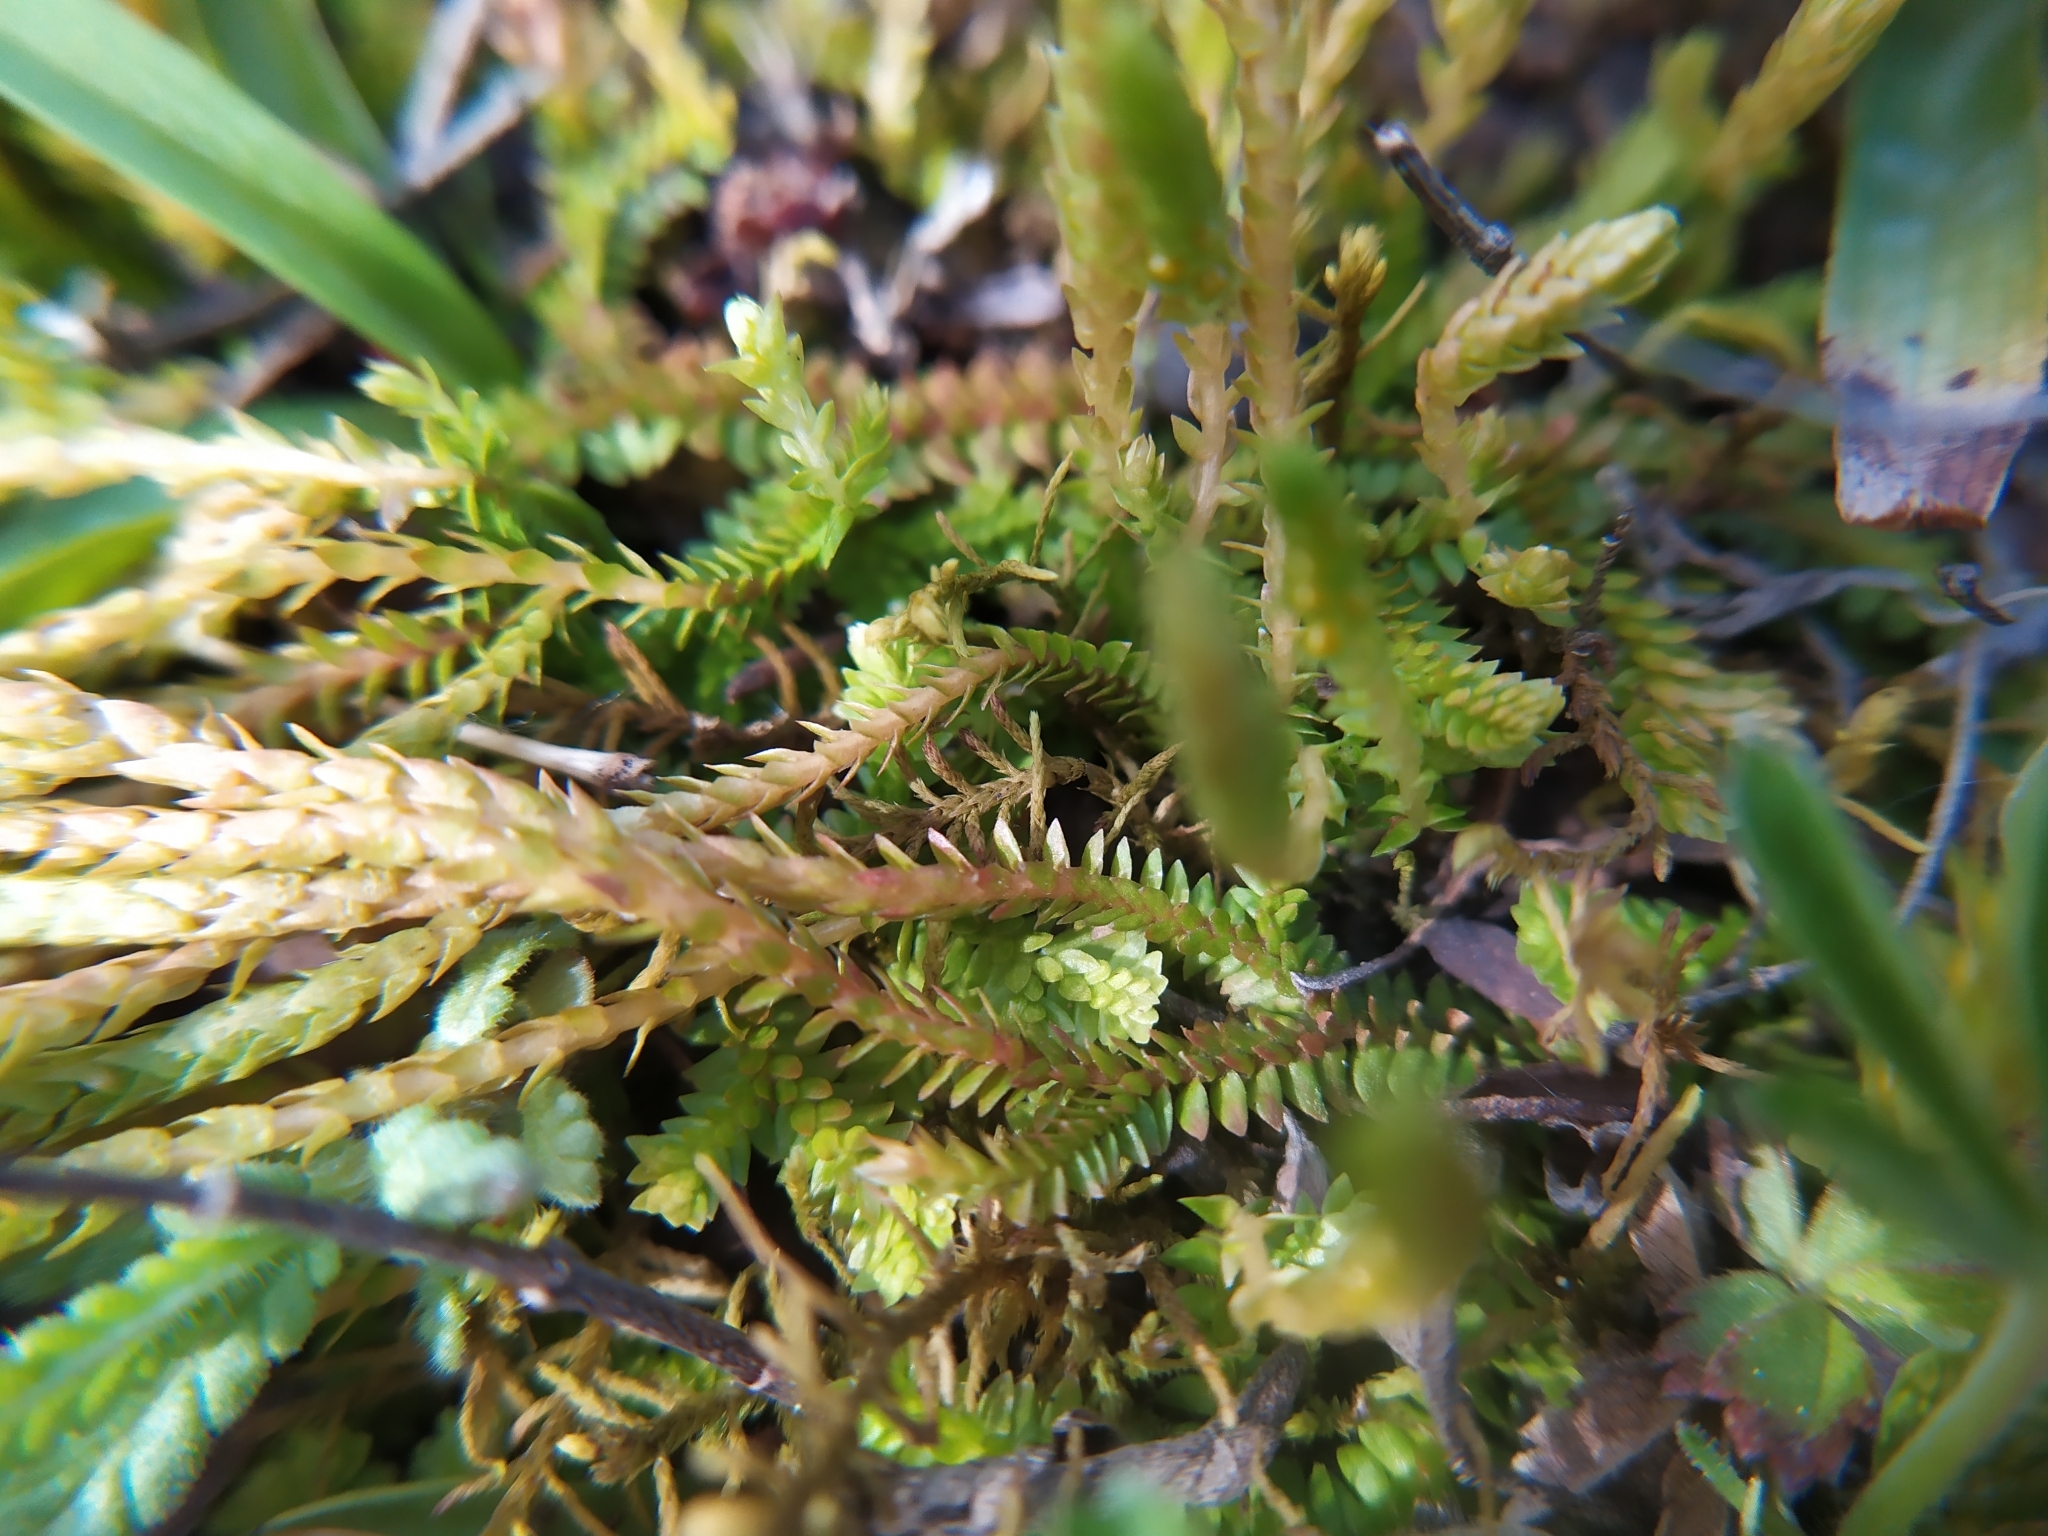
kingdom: Plantae
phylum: Tracheophyta
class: Lycopodiopsida
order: Selaginellales
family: Selaginellaceae
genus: Selaginella
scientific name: Selaginella helvetica
